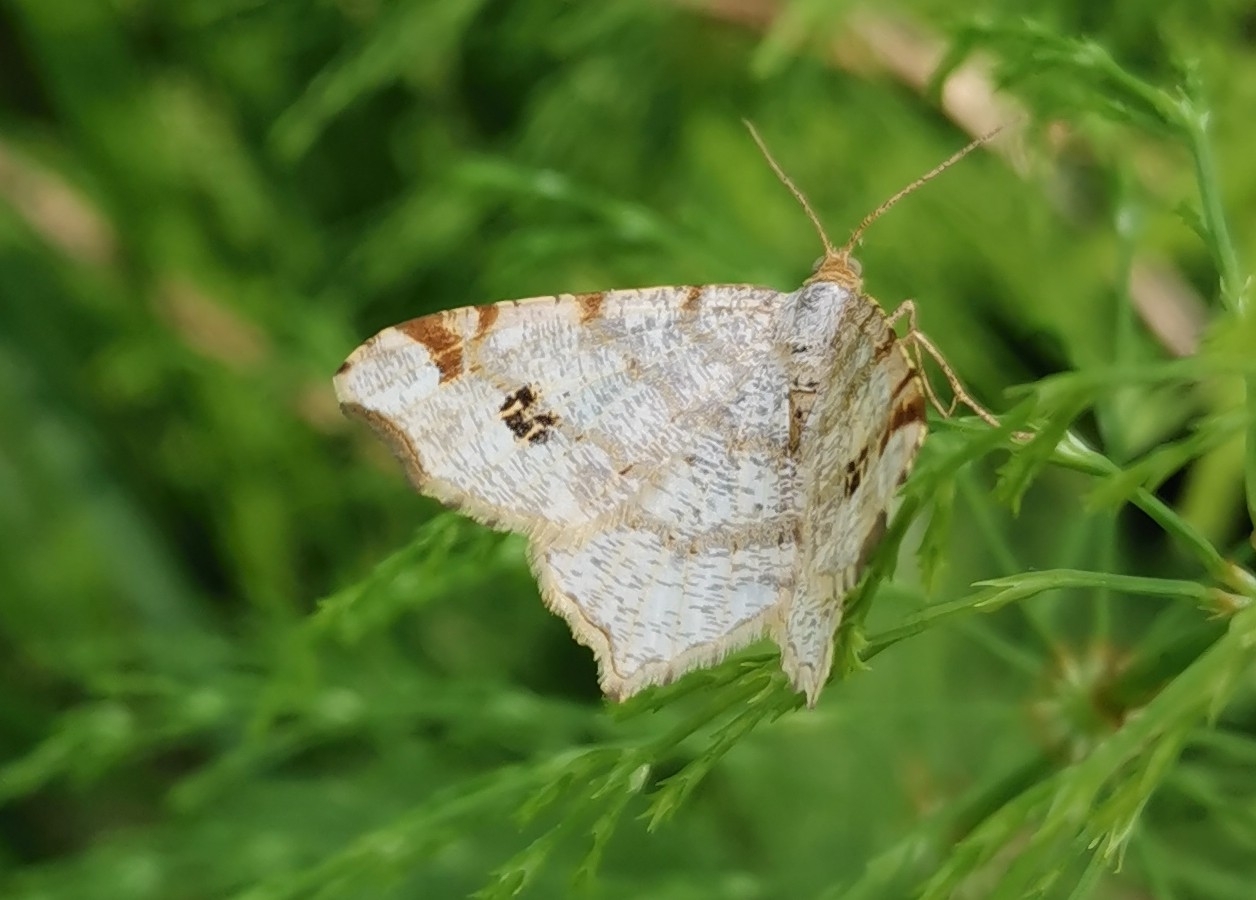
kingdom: Animalia
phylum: Arthropoda
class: Insecta
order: Lepidoptera
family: Geometridae
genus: Macaria
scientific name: Macaria notata
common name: Peacock moth
